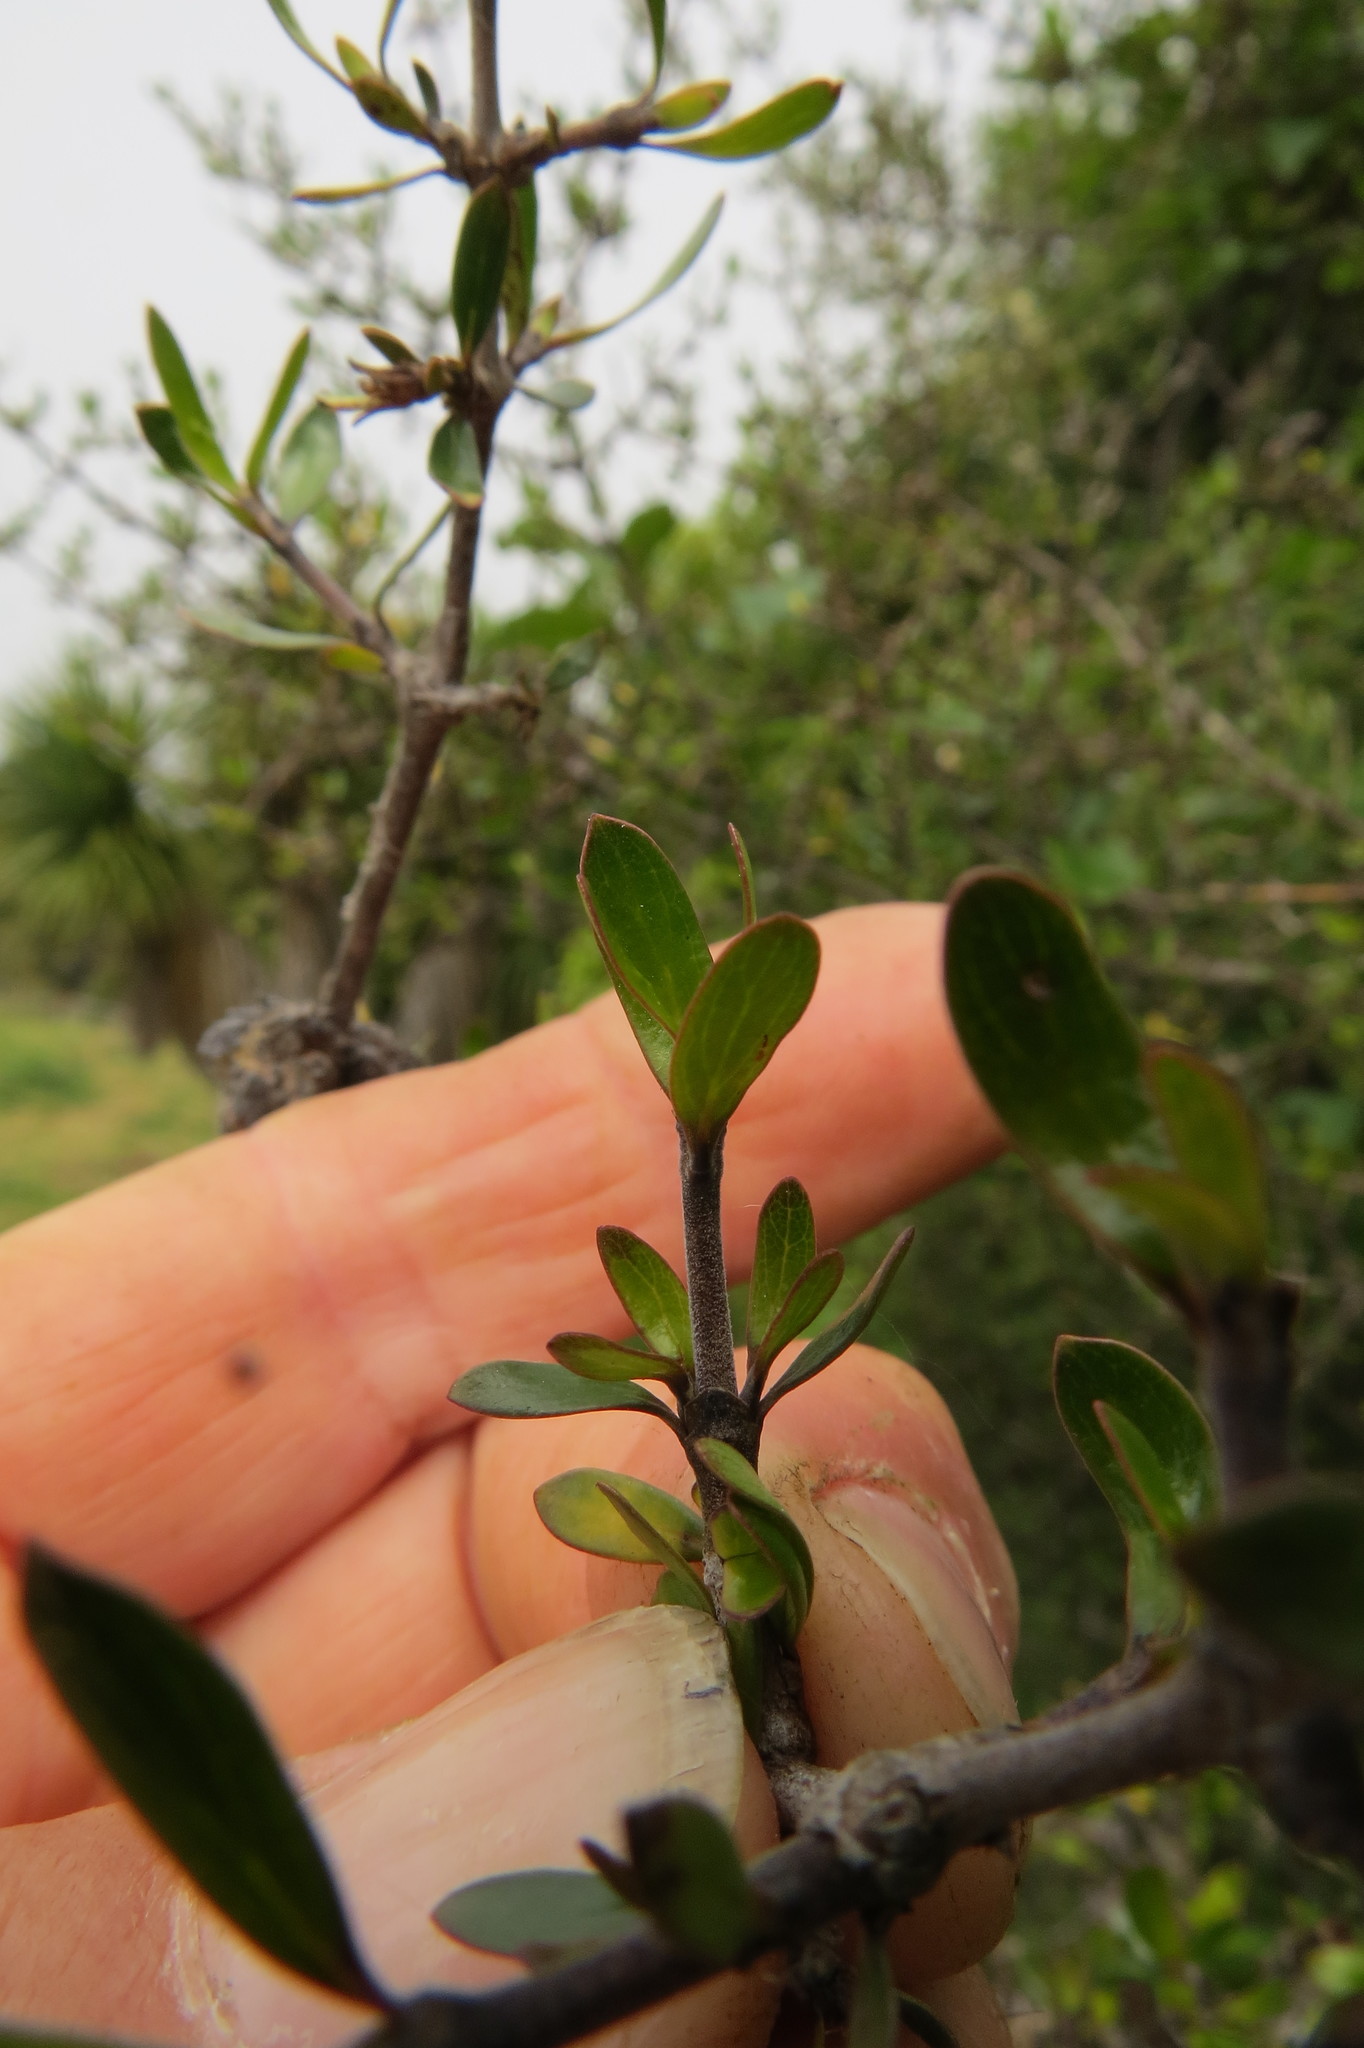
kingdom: Plantae
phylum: Tracheophyta
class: Magnoliopsida
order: Gentianales
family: Rubiaceae
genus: Coprosma
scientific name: Coprosma propinqua
